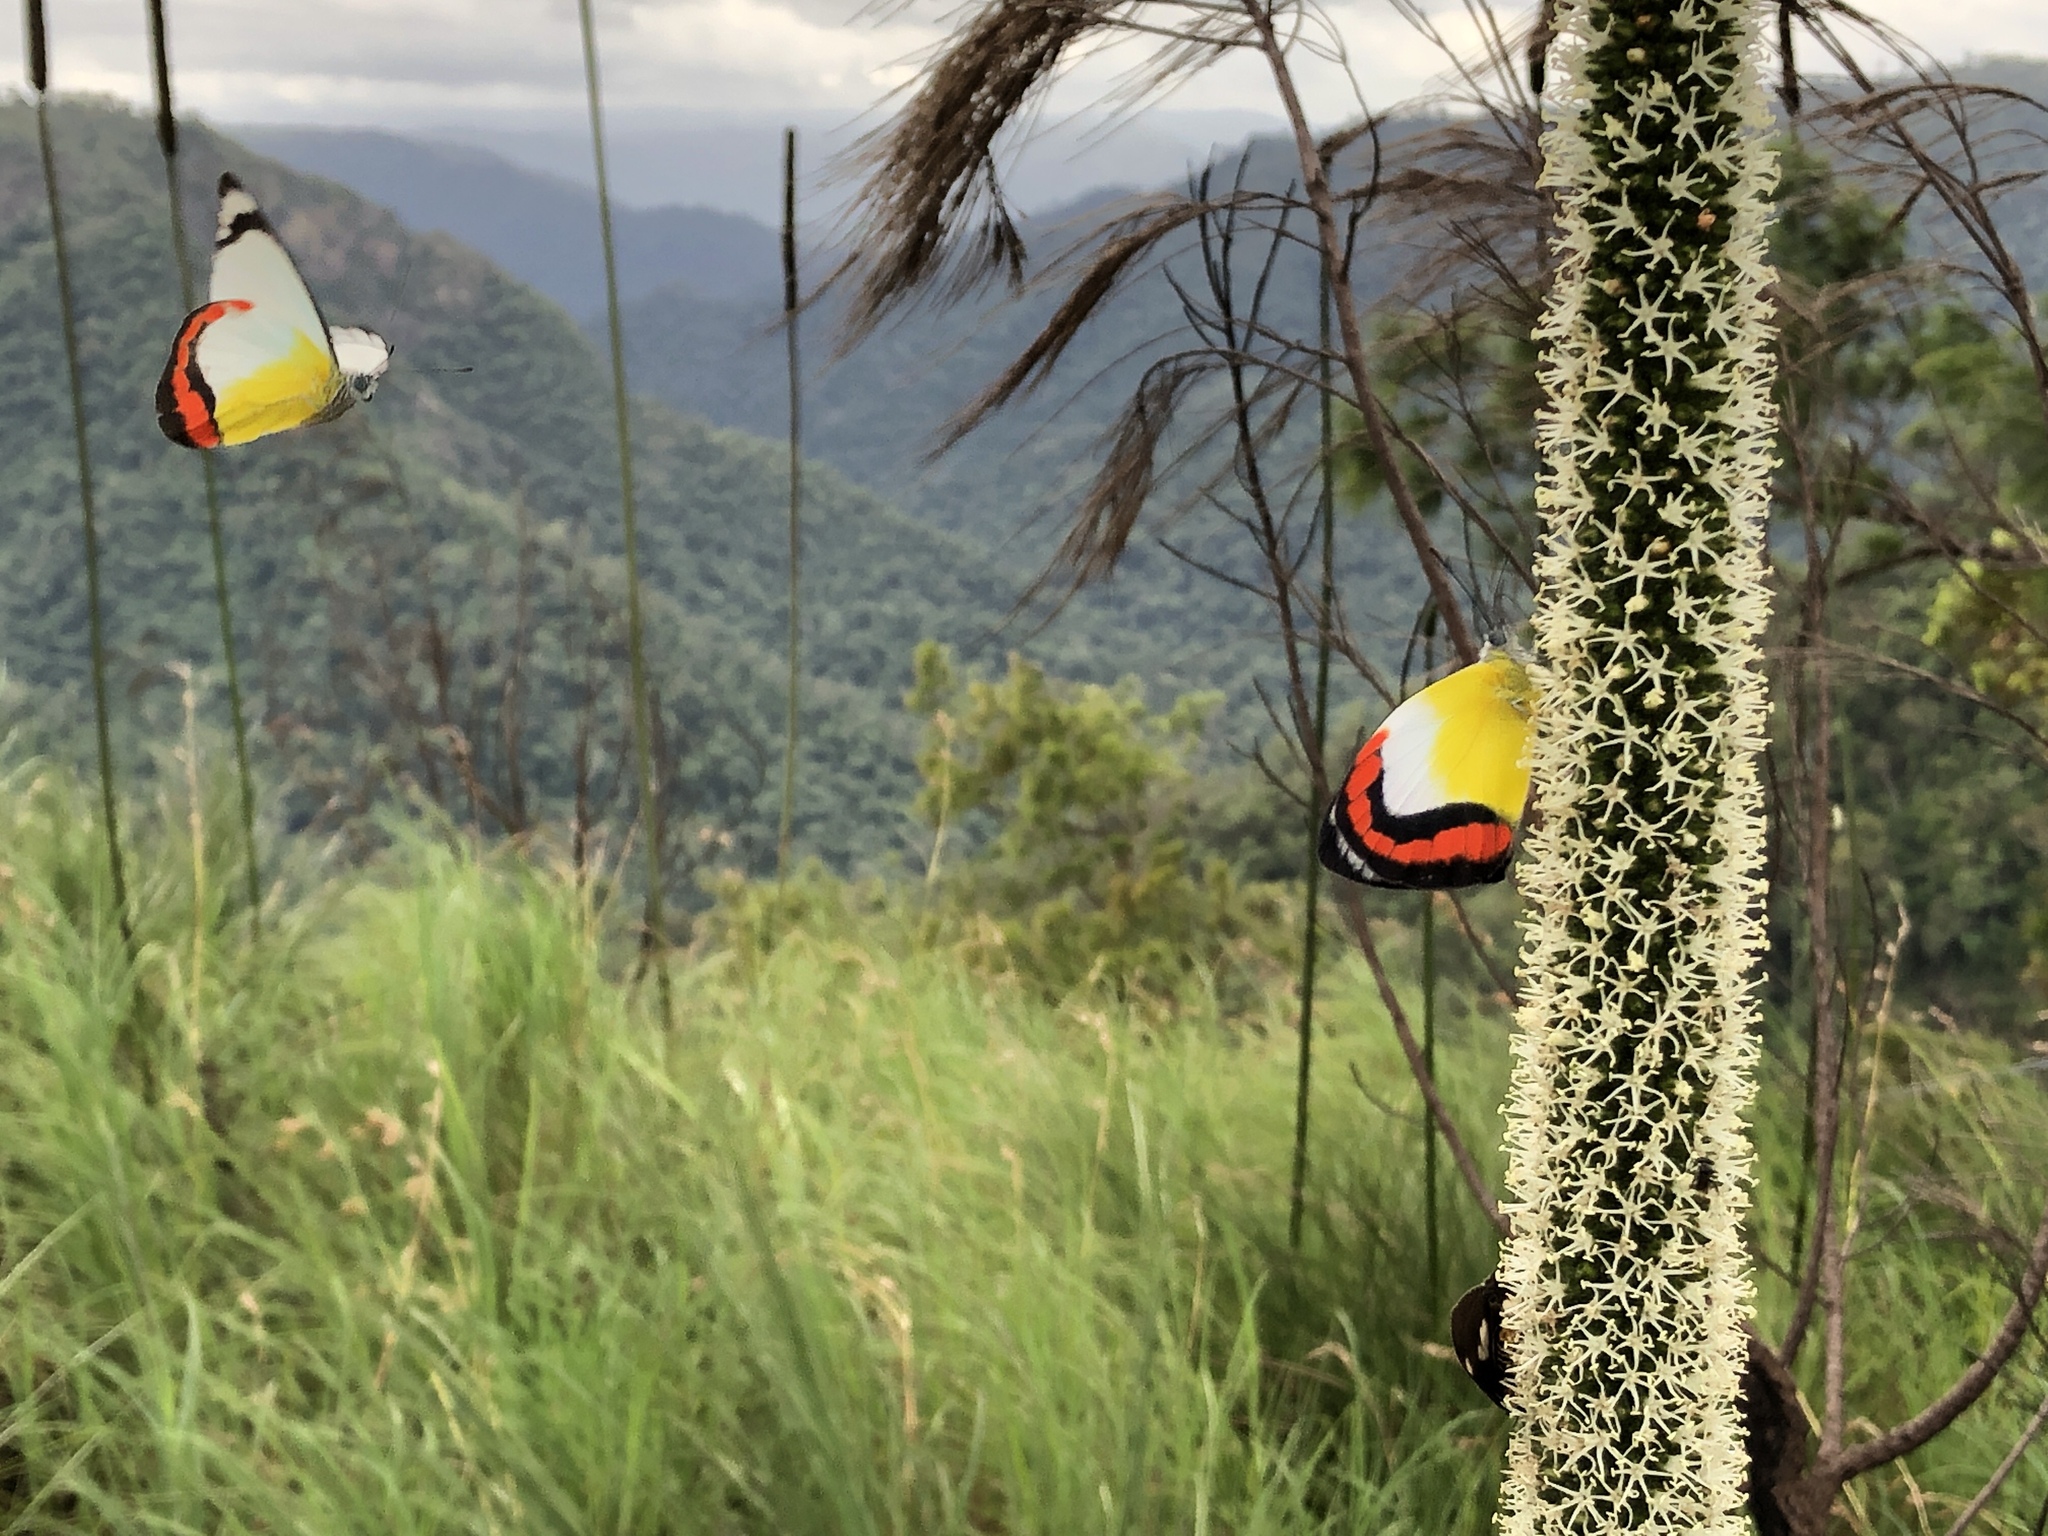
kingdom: Animalia
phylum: Arthropoda
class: Insecta
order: Lepidoptera
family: Pieridae
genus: Delias
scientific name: Delias mysis
